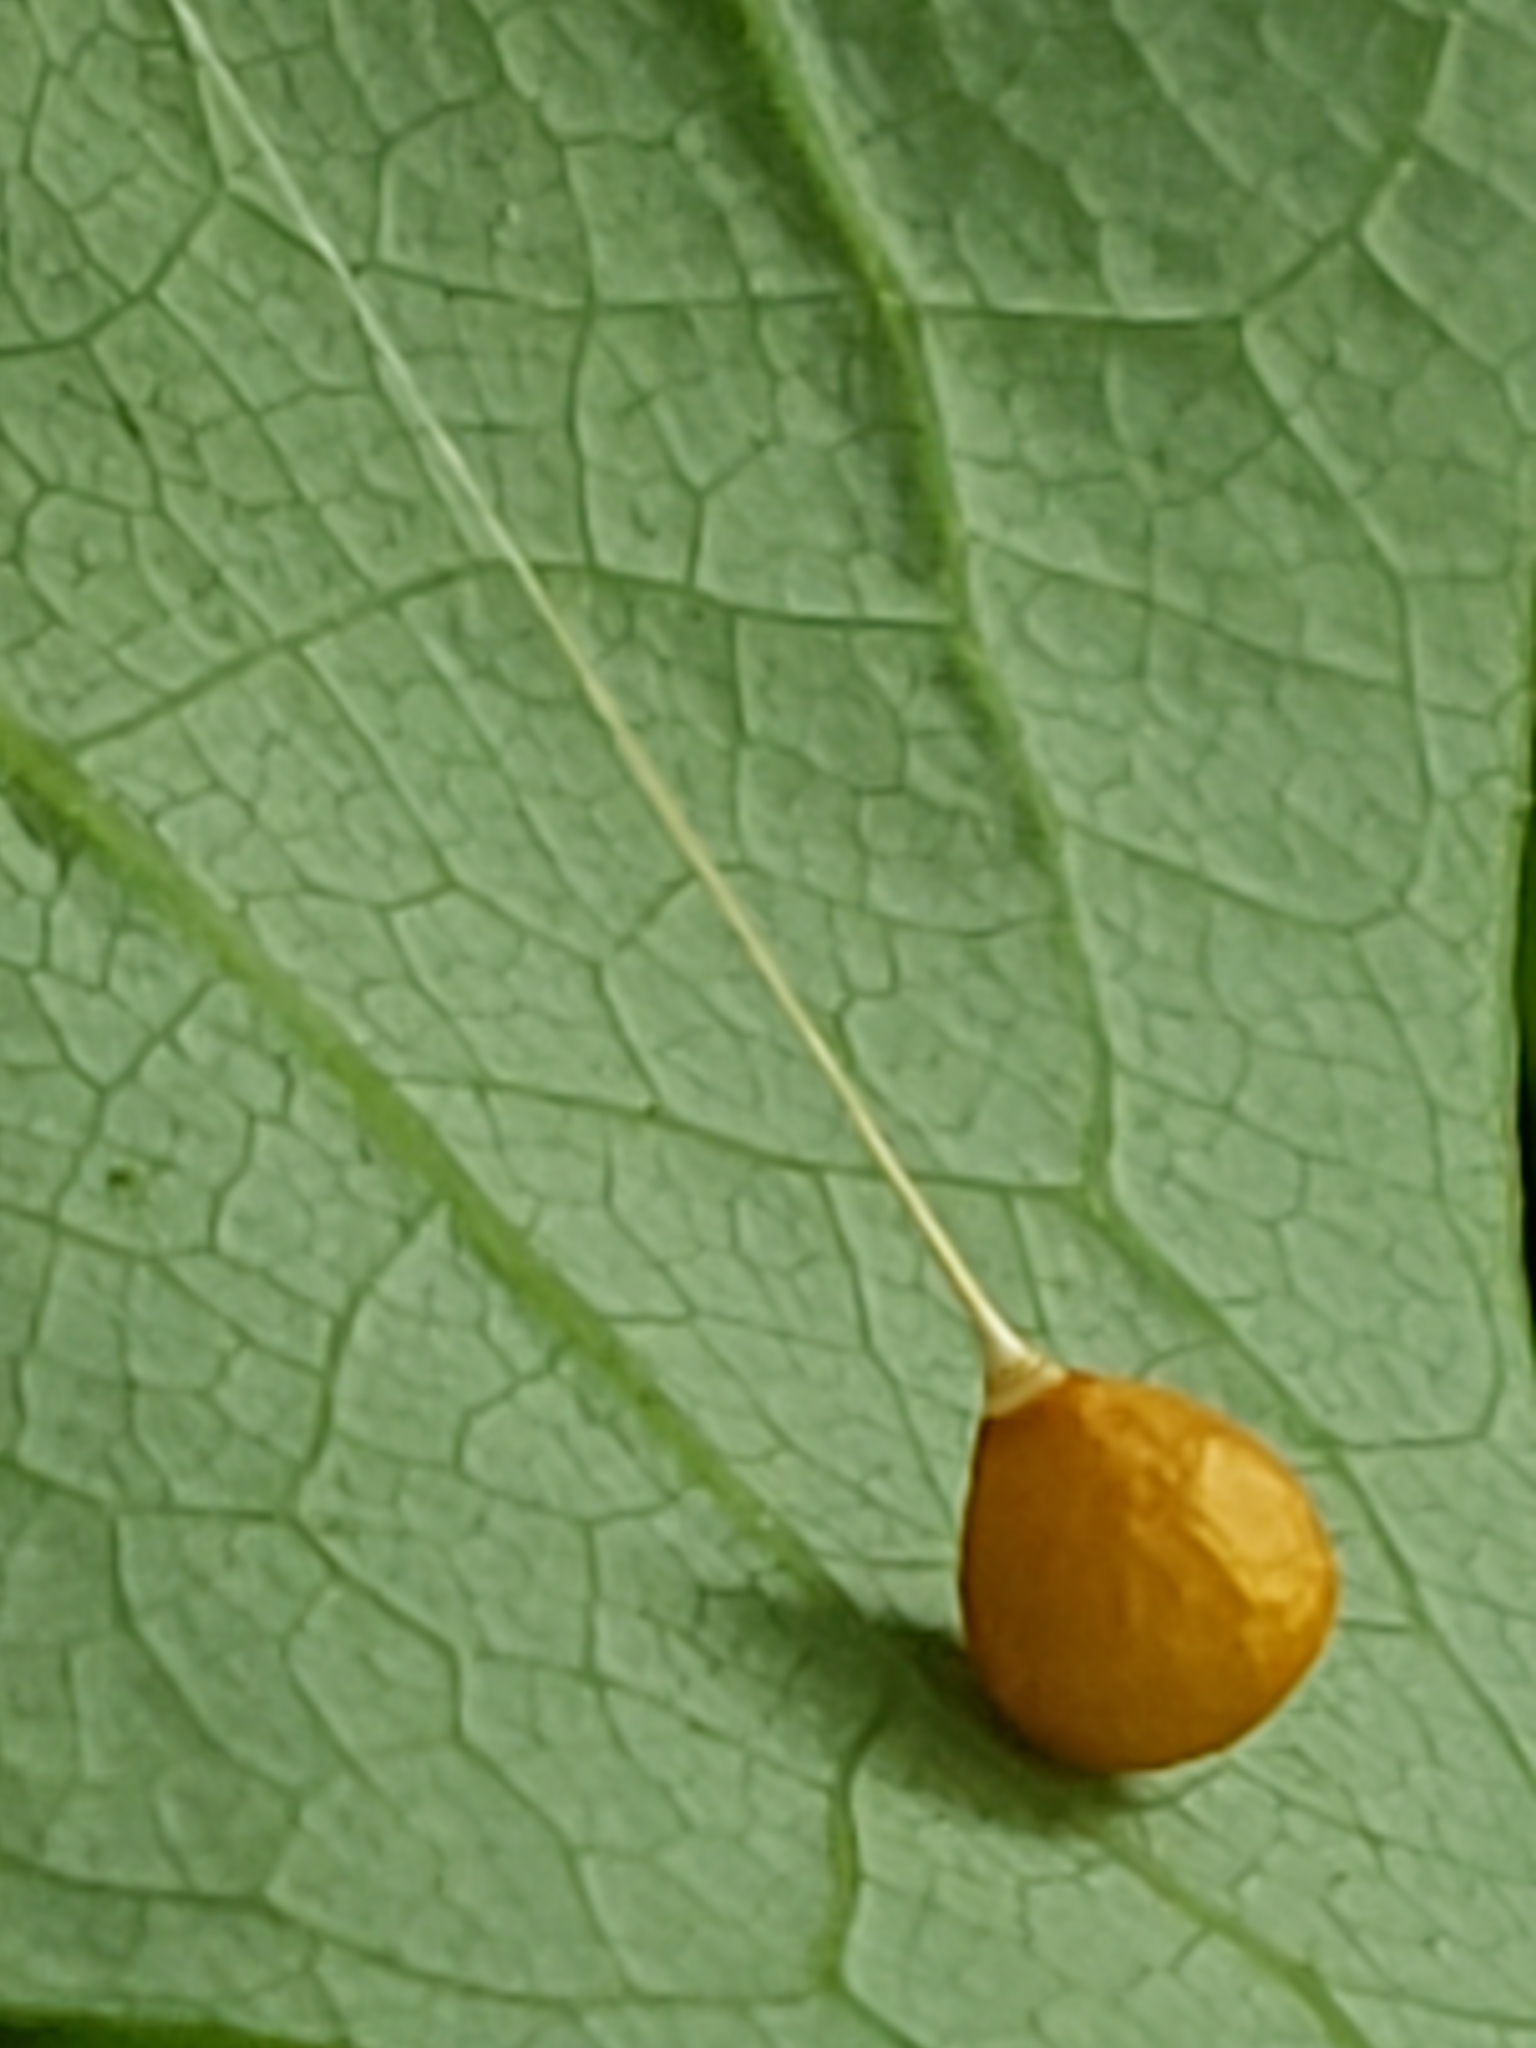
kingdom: Animalia
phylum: Arthropoda
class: Arachnida
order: Araneae
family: Theridiosomatidae
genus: Theridiosoma
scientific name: Theridiosoma gemmosum
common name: Ray spider
